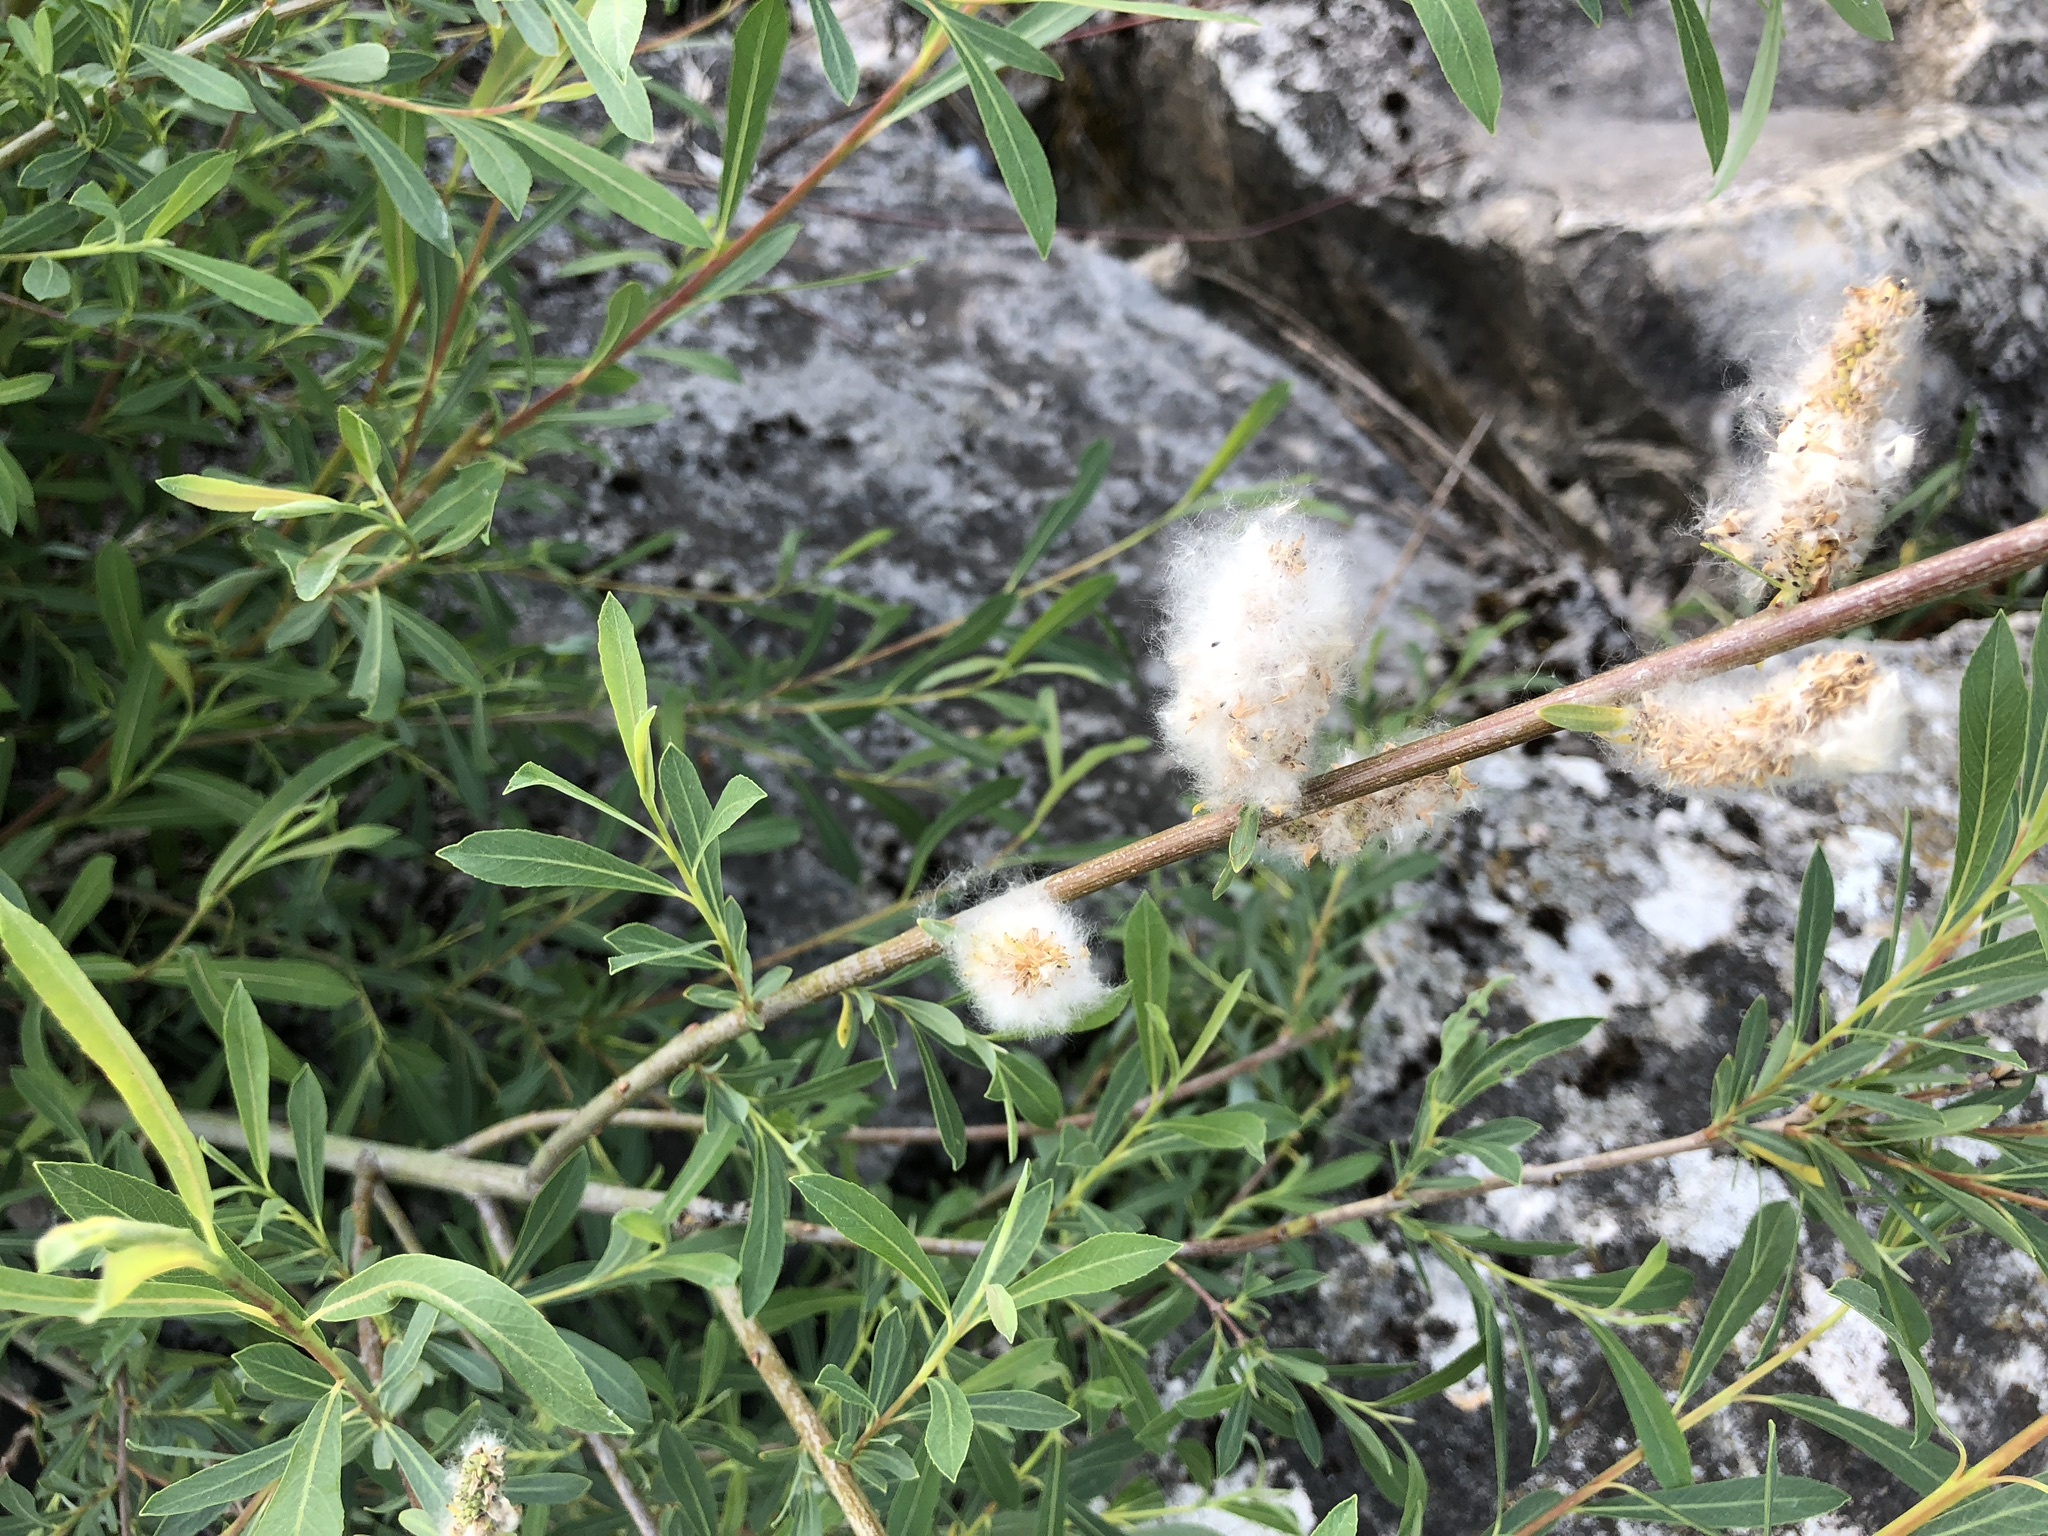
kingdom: Plantae
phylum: Tracheophyta
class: Magnoliopsida
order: Malpighiales
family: Salicaceae
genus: Salix
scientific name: Salix purpurea
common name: Purple willow
